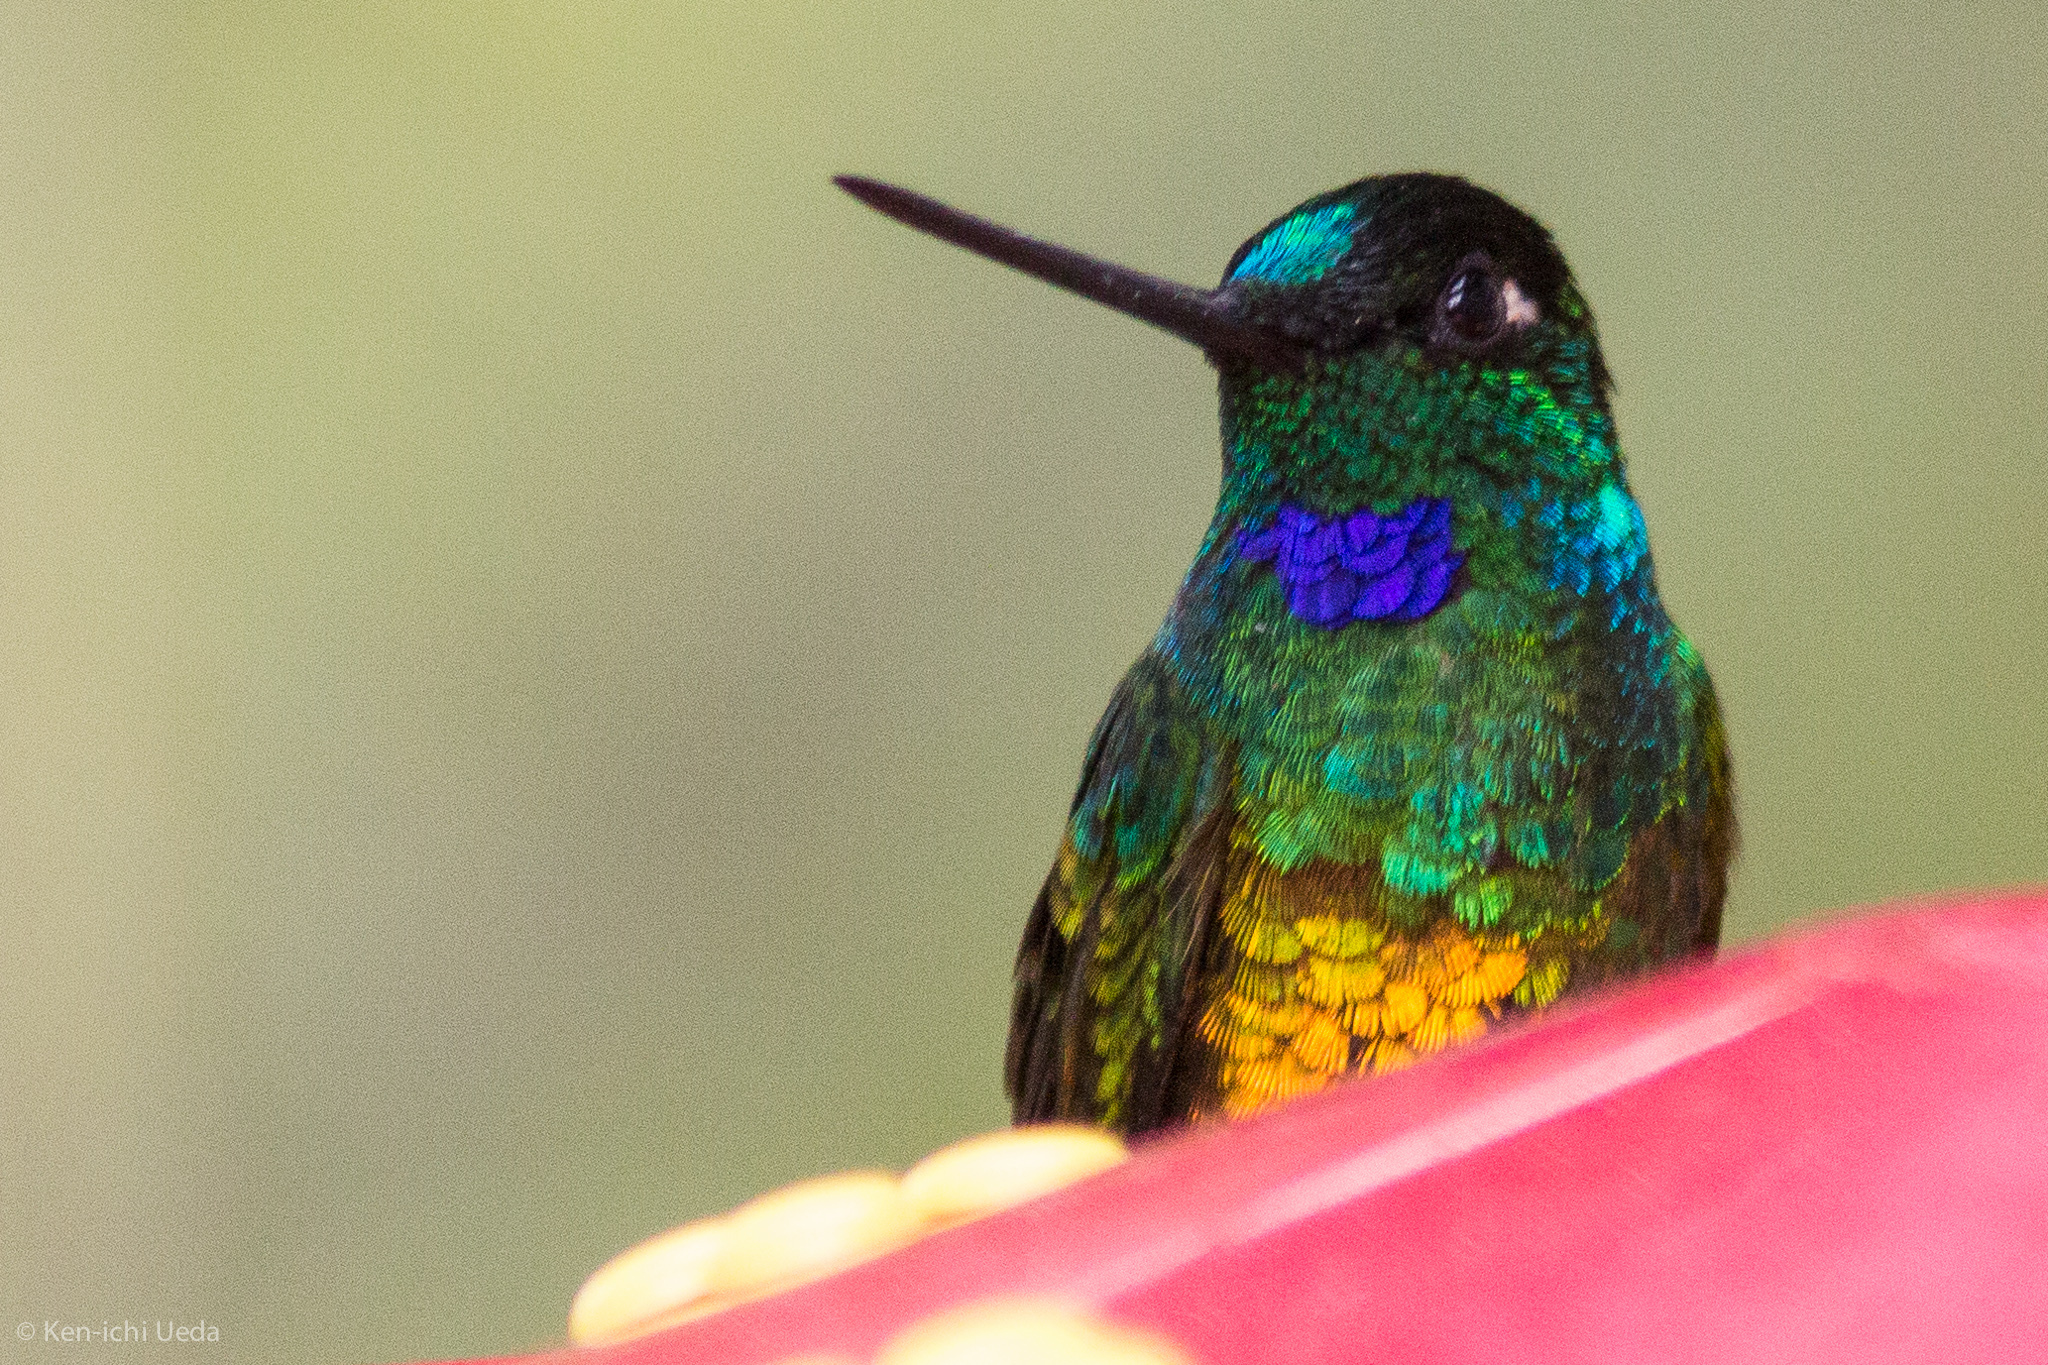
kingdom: Animalia
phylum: Chordata
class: Aves
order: Apodiformes
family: Trochilidae
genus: Coeligena
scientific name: Coeligena bonapartei
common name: Golden-bellied starfrontlet
